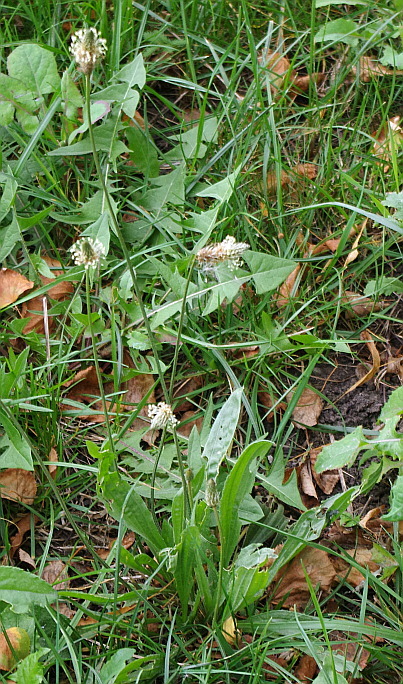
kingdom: Plantae
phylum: Tracheophyta
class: Magnoliopsida
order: Lamiales
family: Plantaginaceae
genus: Plantago
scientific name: Plantago lanceolata
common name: Ribwort plantain
